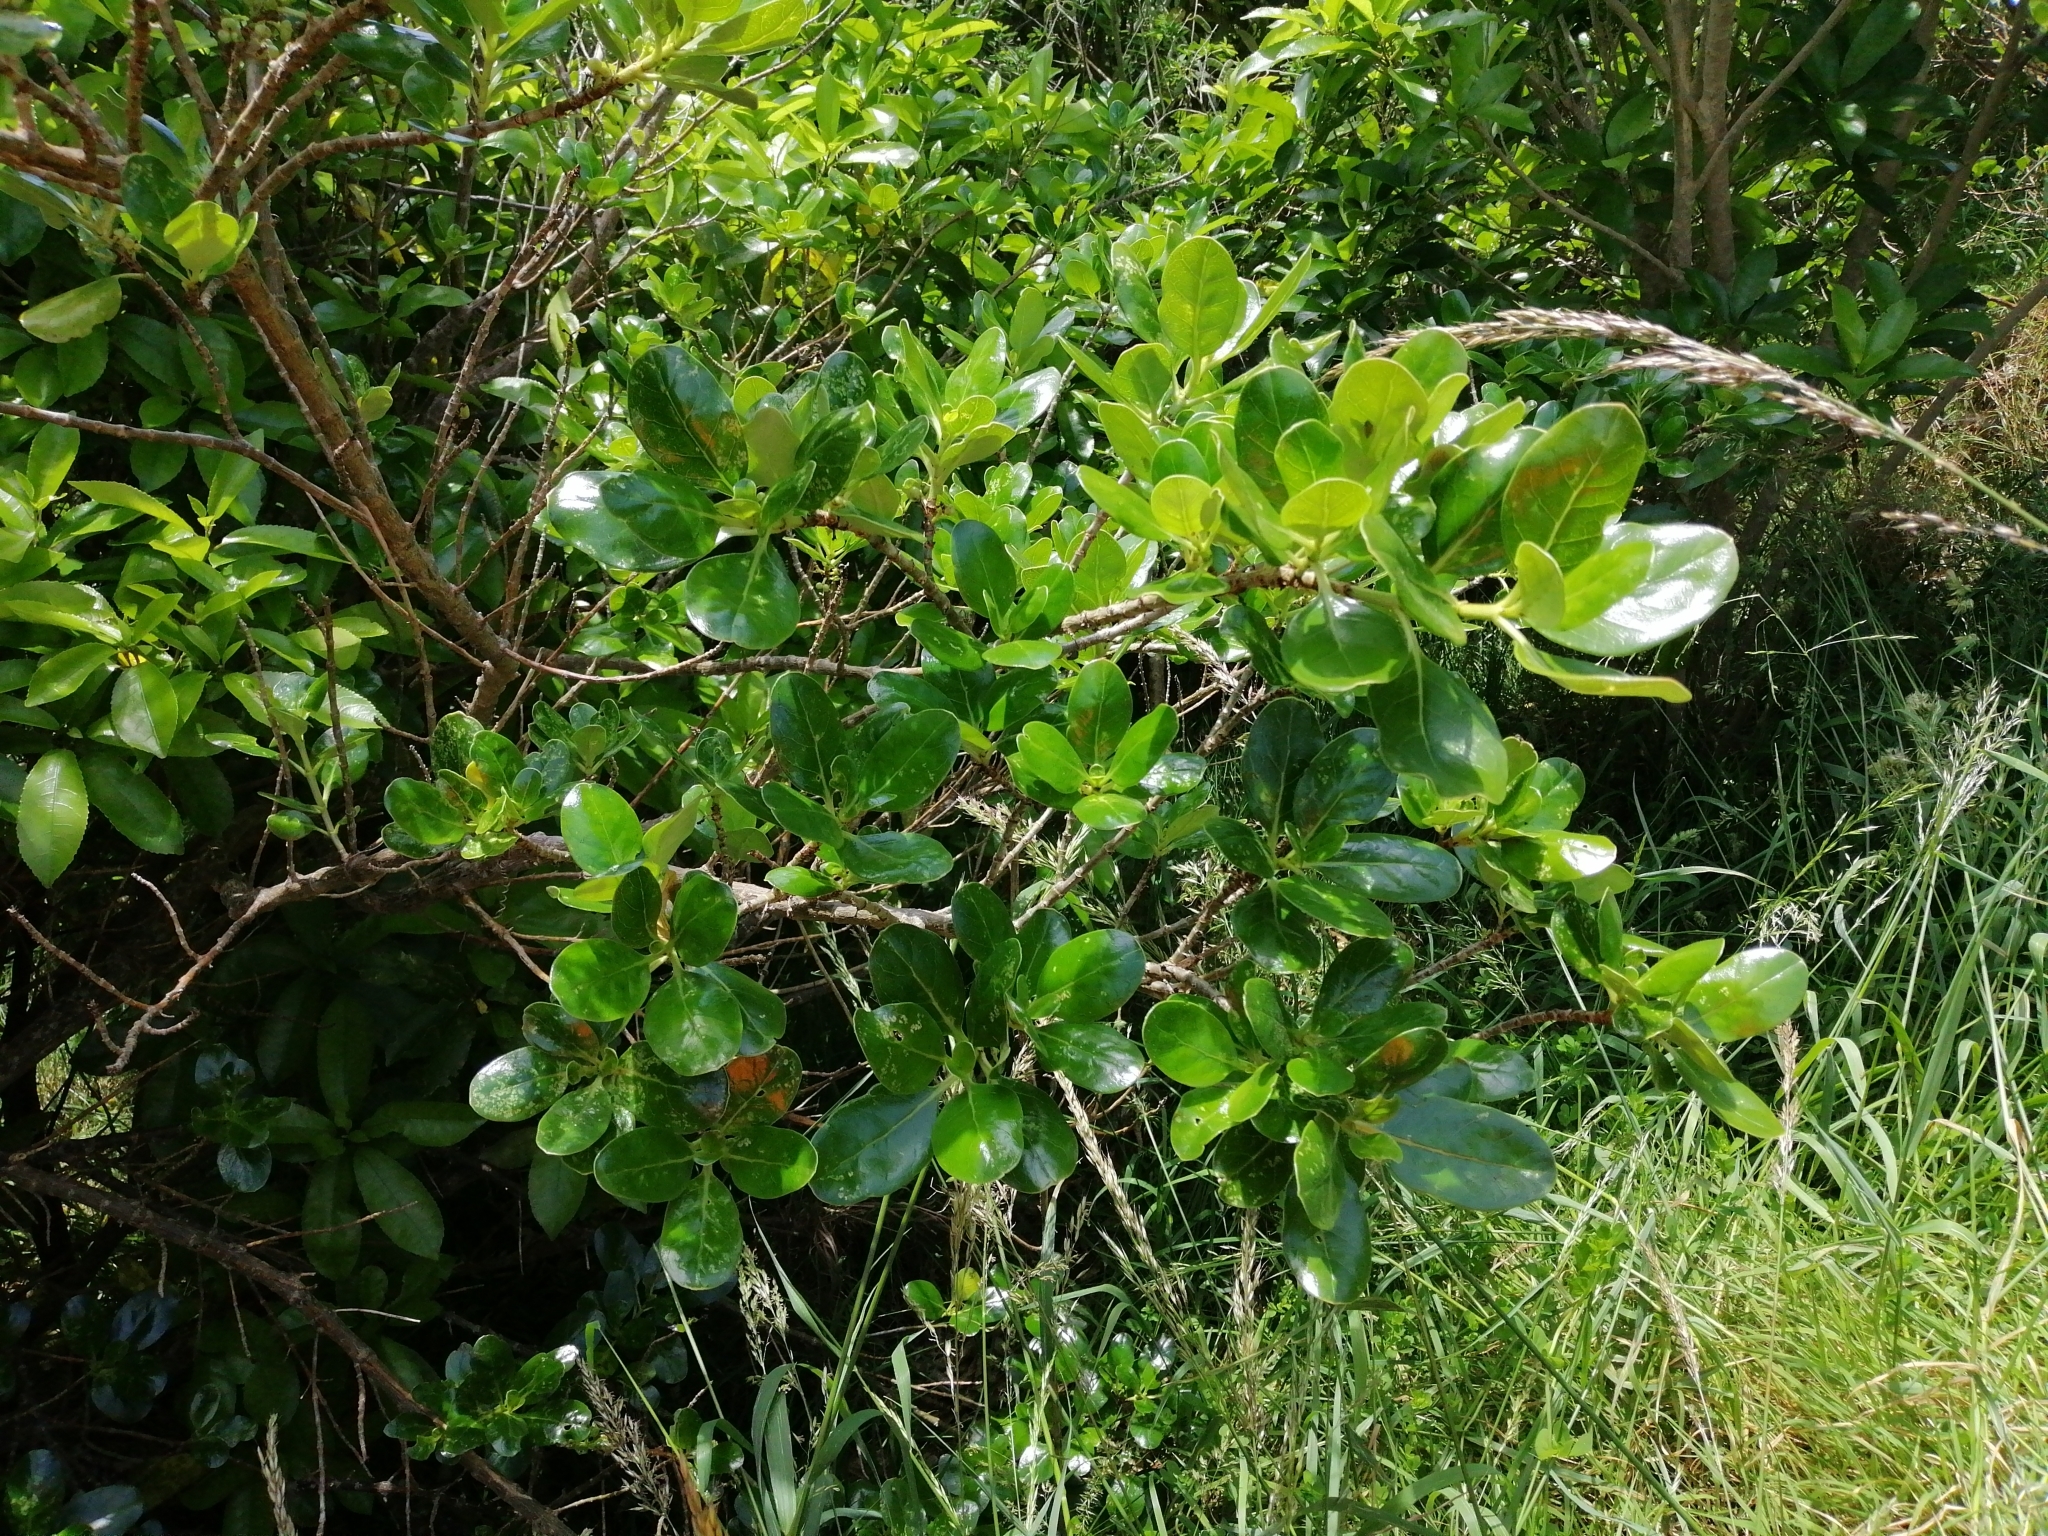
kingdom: Plantae
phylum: Tracheophyta
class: Magnoliopsida
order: Gentianales
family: Rubiaceae
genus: Coprosma
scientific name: Coprosma repens
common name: Tree bedstraw
